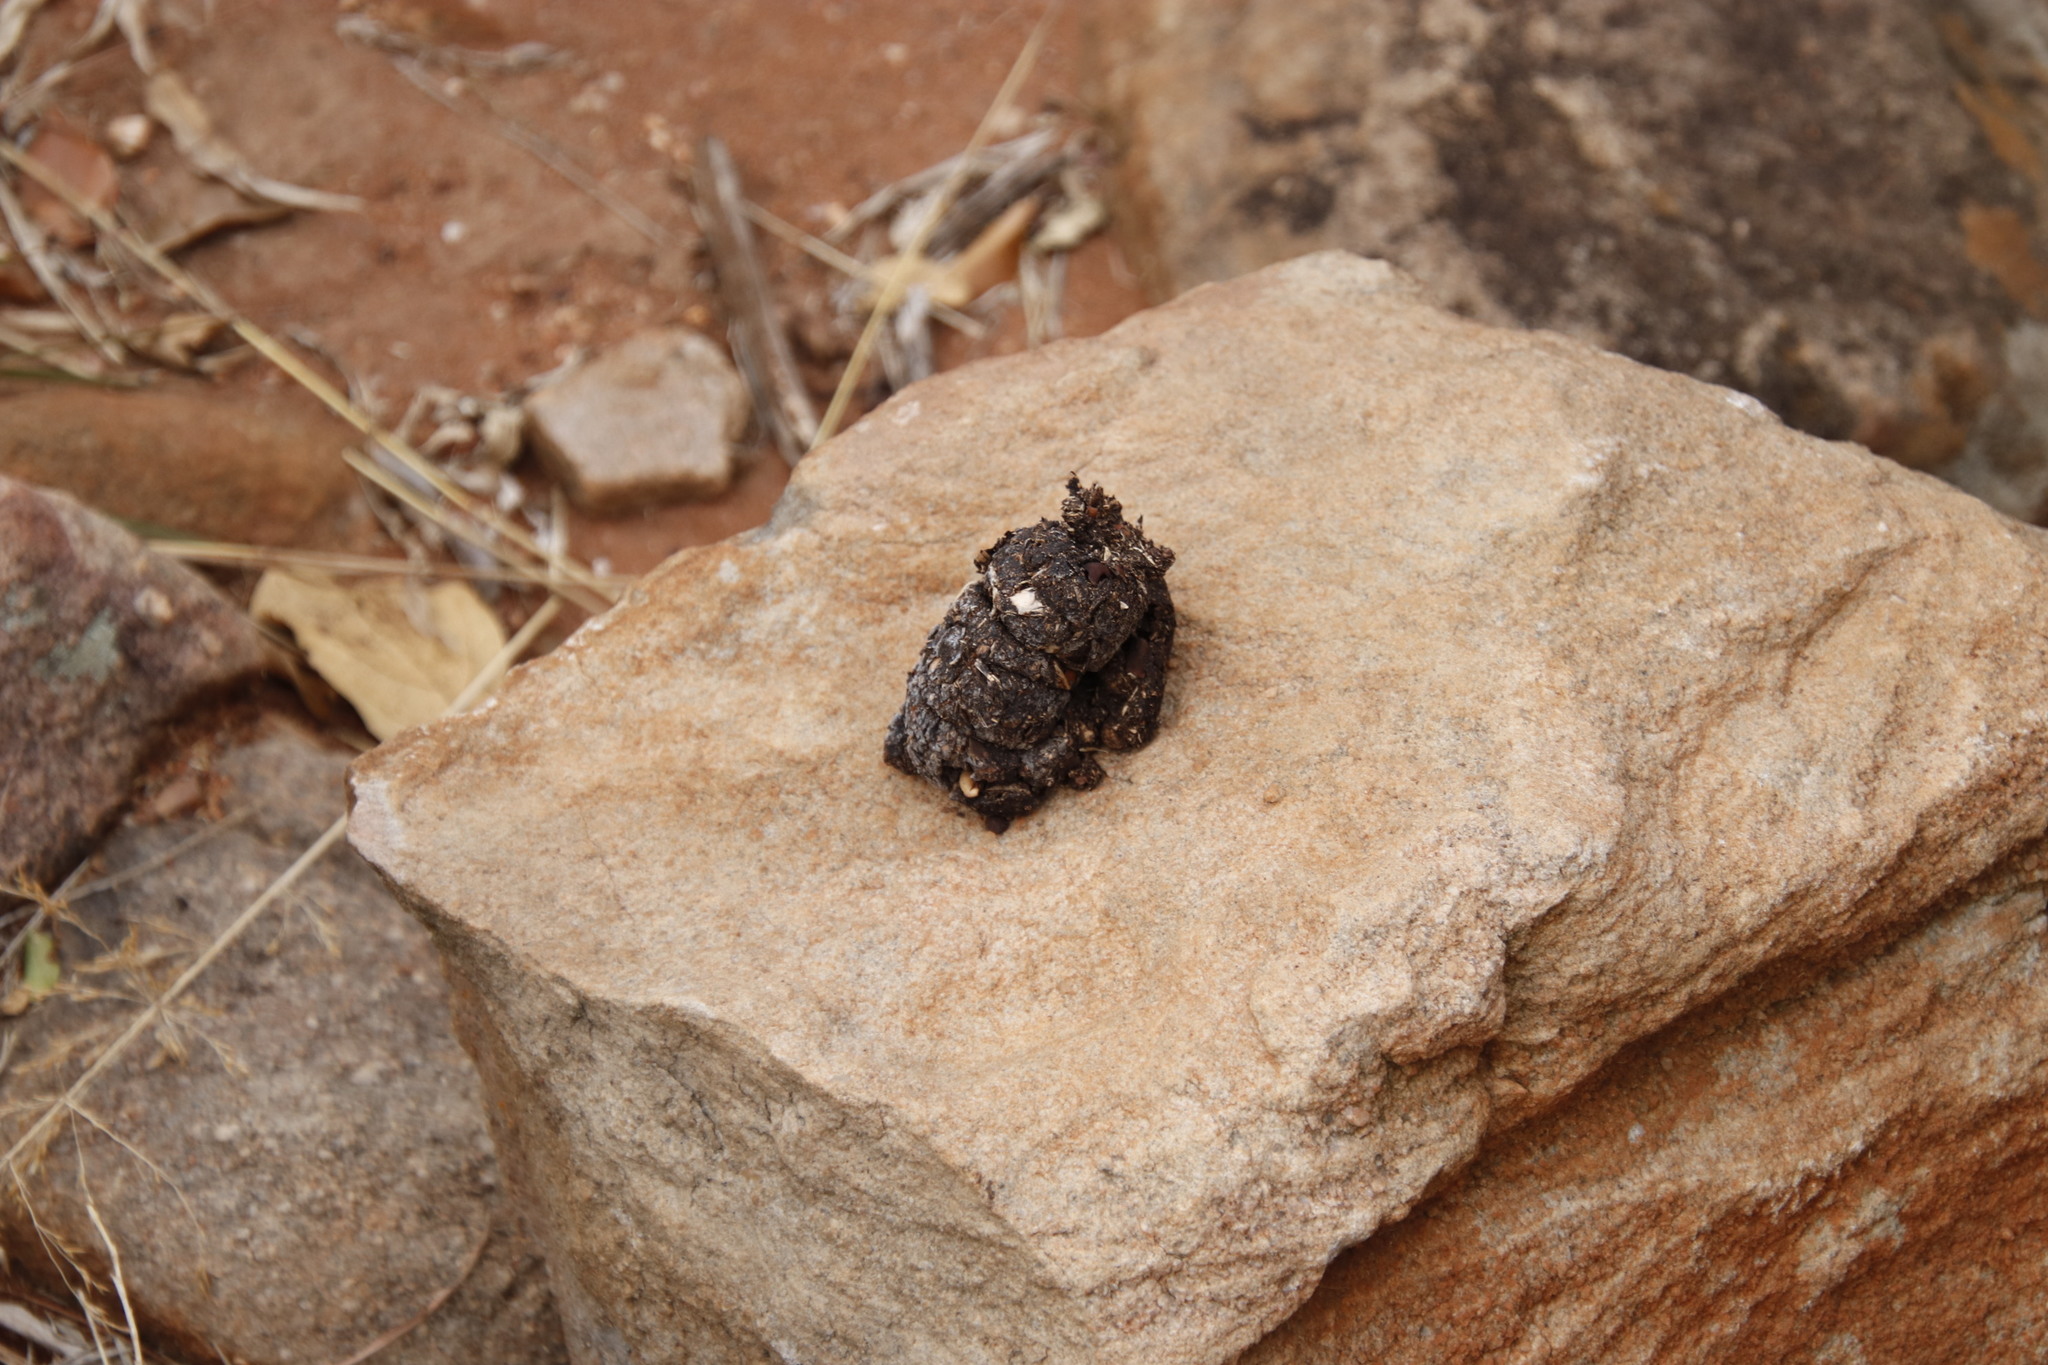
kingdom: Animalia
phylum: Chordata
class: Mammalia
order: Primates
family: Cercopithecidae
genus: Papio
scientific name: Papio ursinus
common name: Chacma baboon
